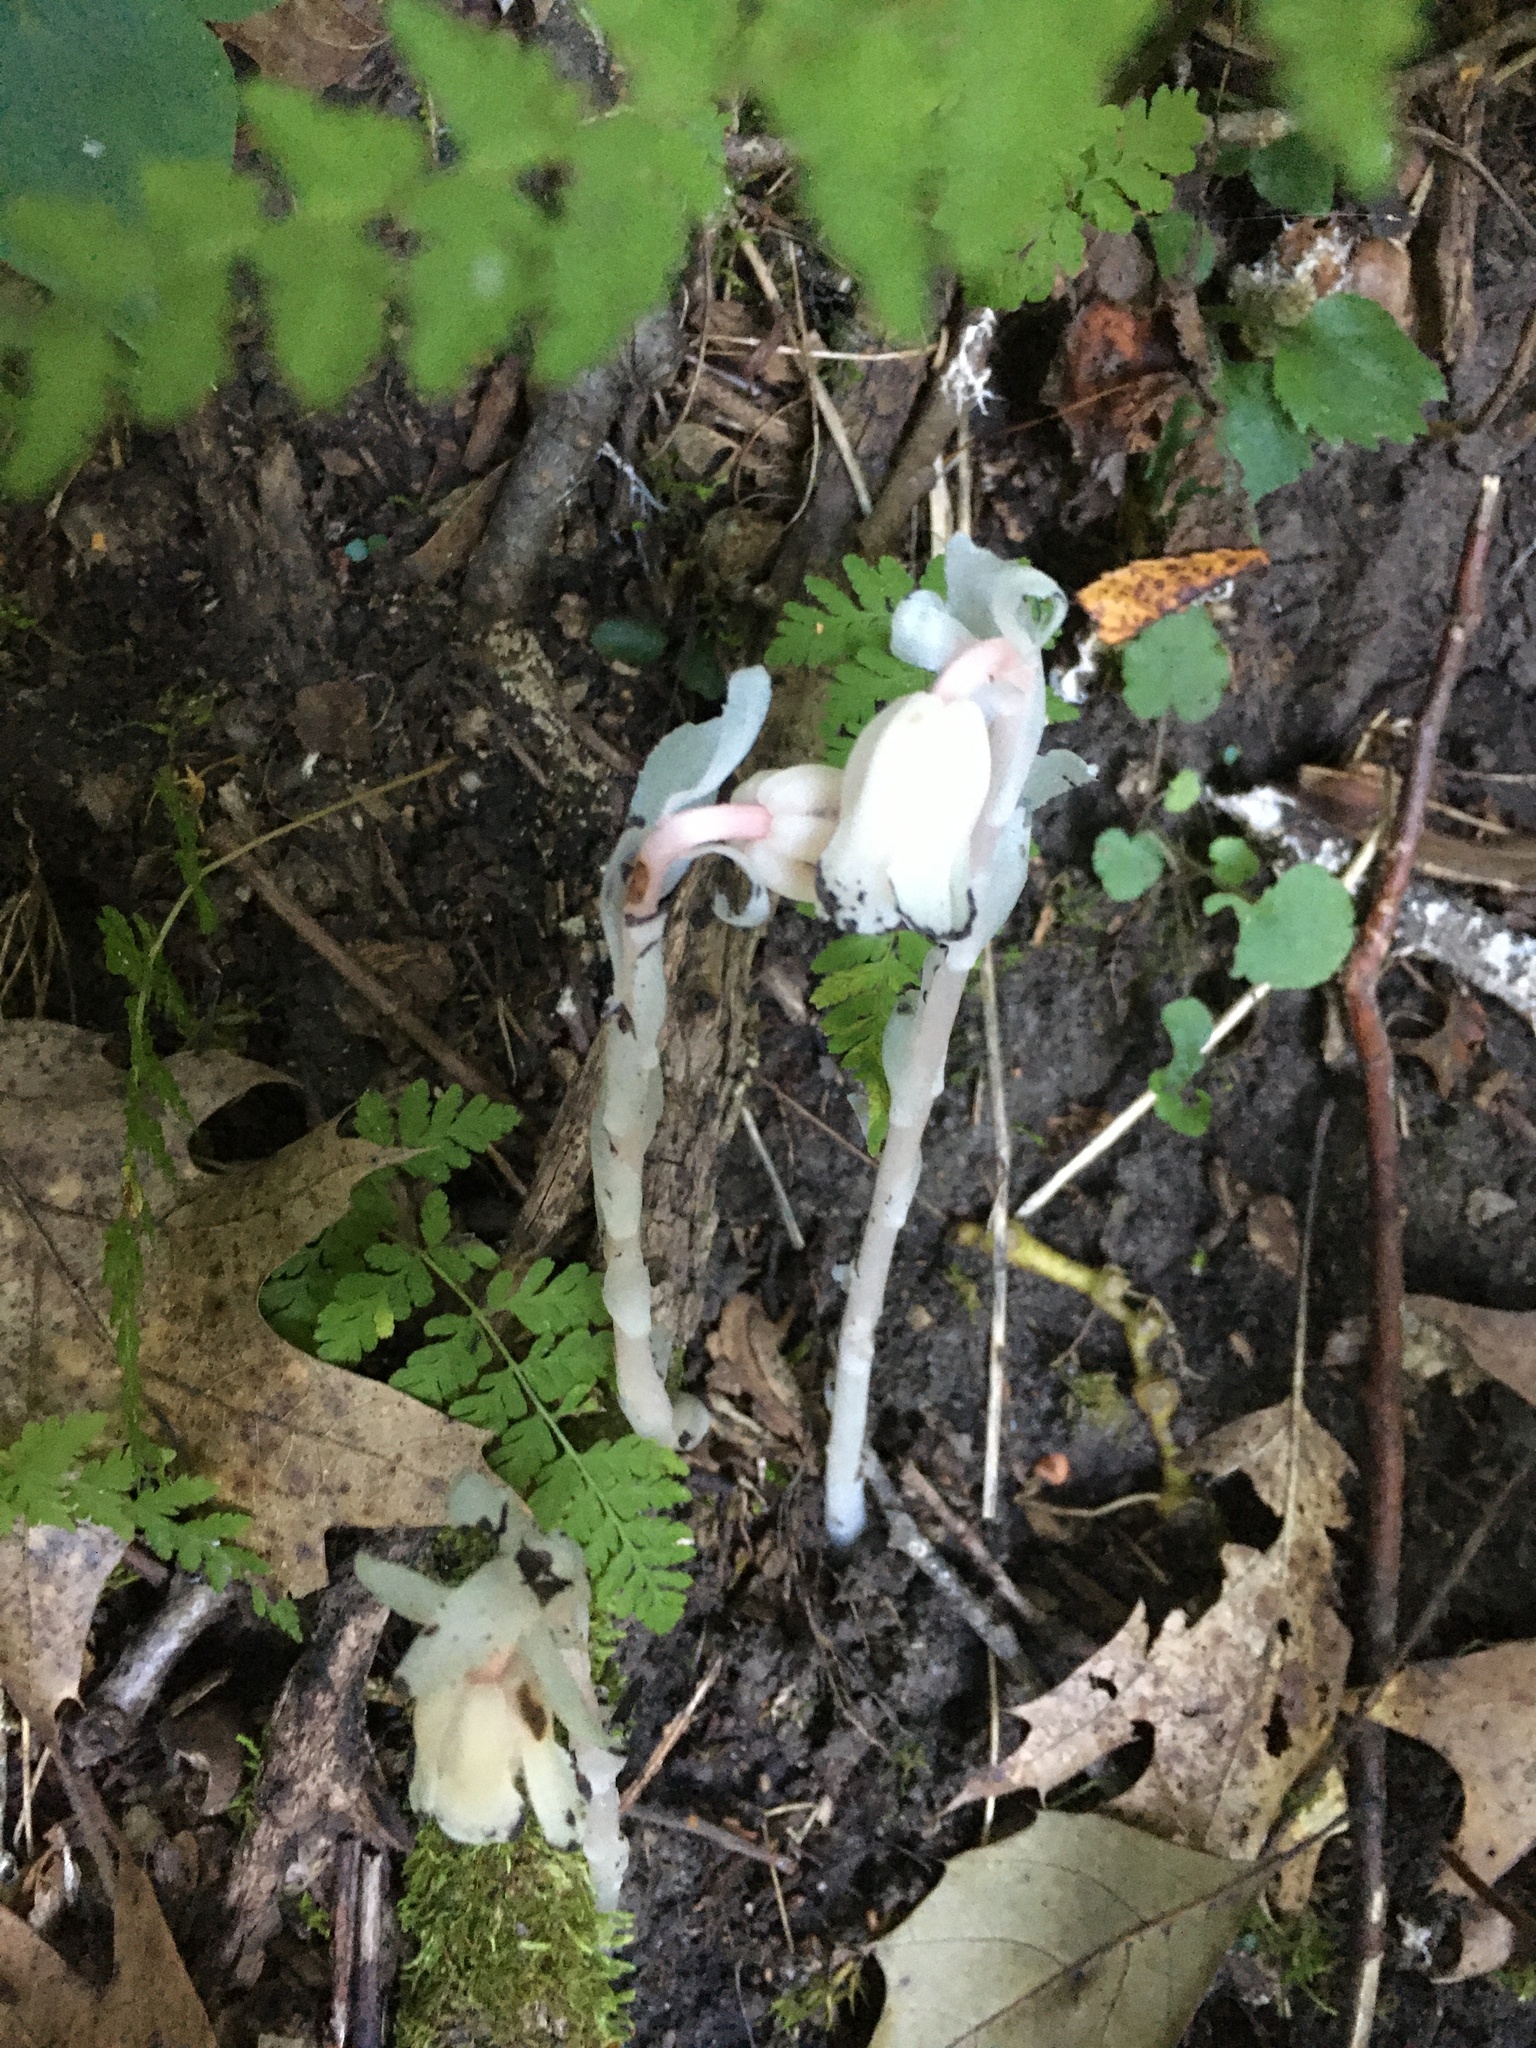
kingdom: Plantae
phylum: Tracheophyta
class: Magnoliopsida
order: Ericales
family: Ericaceae
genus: Monotropa
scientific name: Monotropa uniflora
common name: Convulsion root
